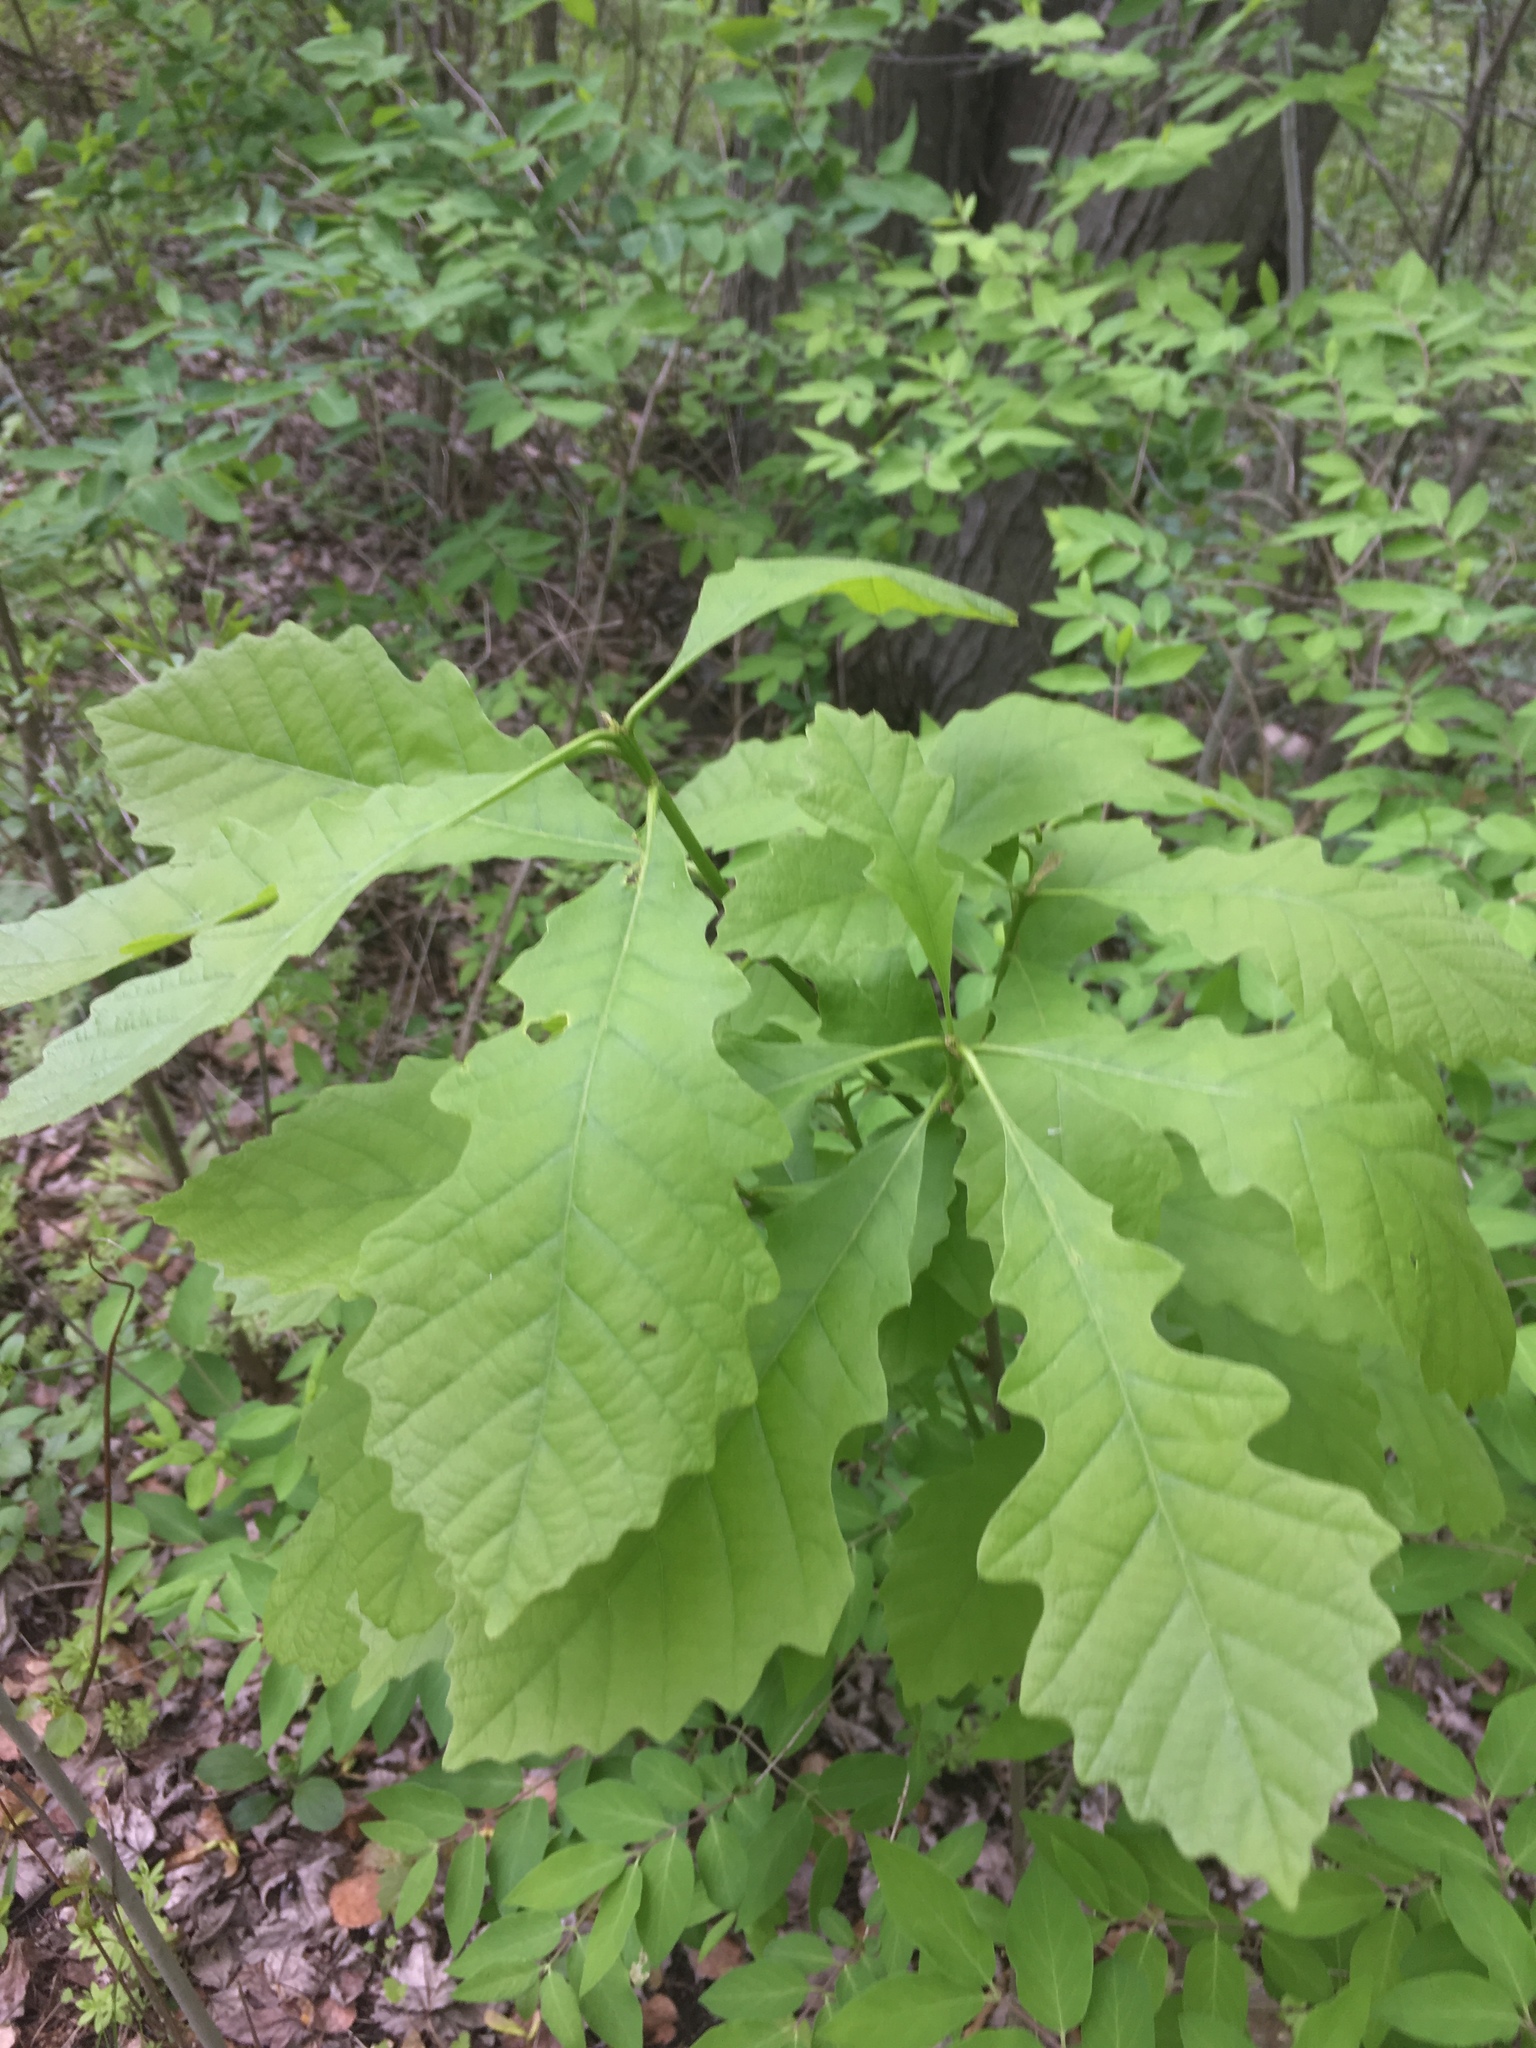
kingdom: Plantae
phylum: Tracheophyta
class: Magnoliopsida
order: Fagales
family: Fagaceae
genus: Quercus
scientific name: Quercus macrocarpa
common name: Bur oak
